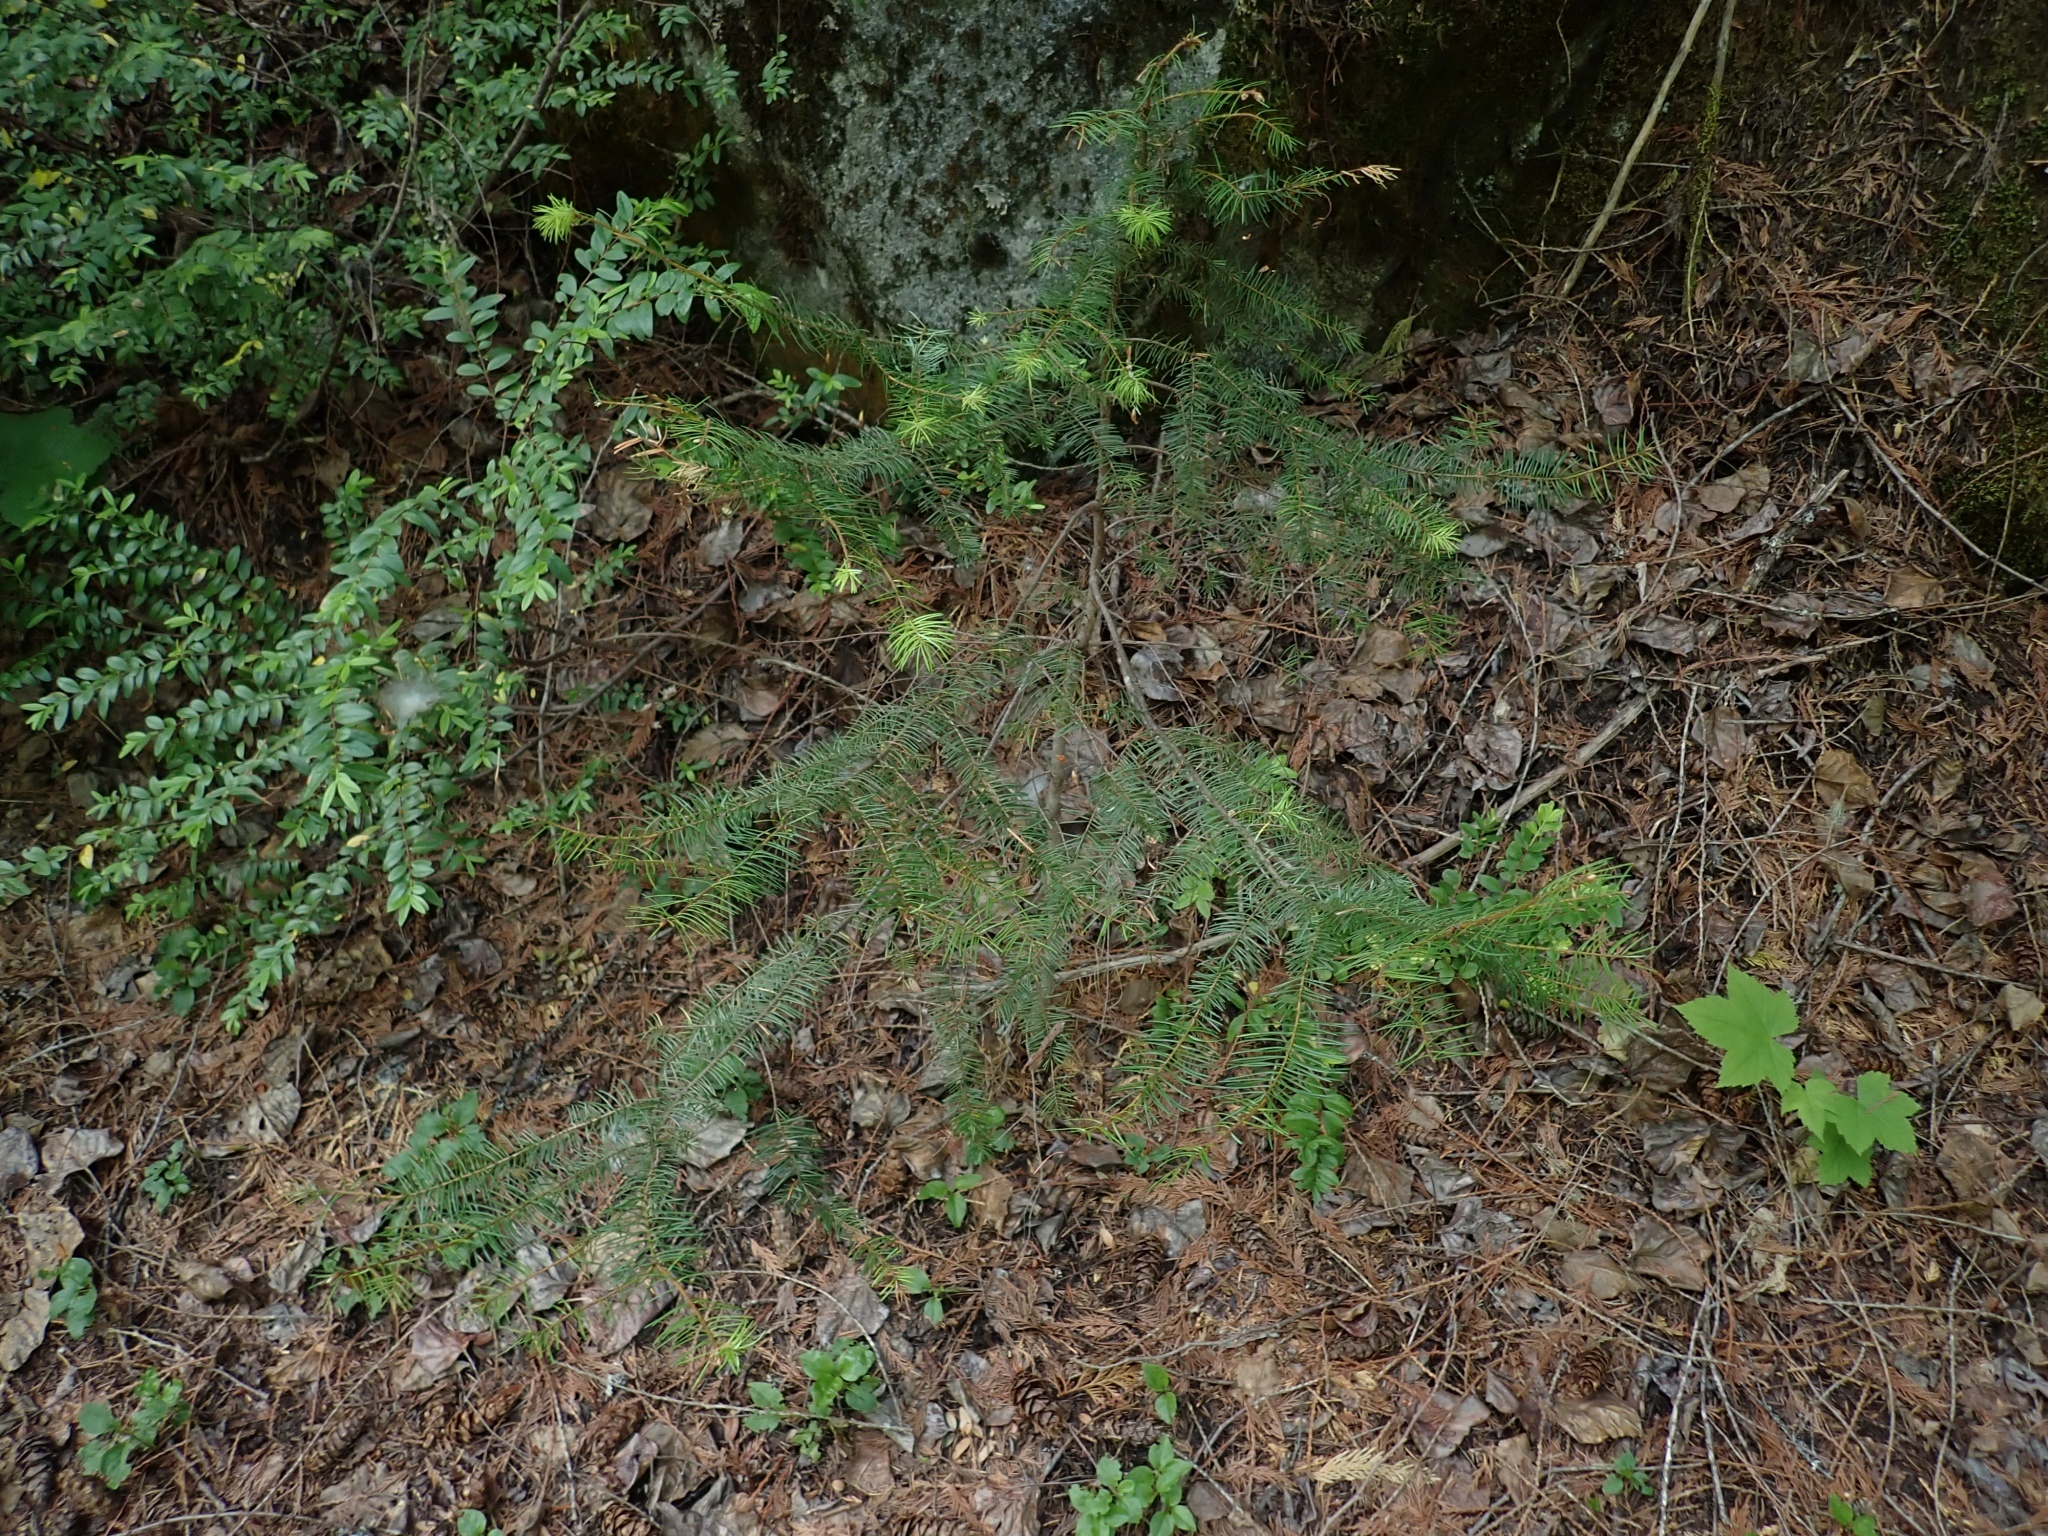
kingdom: Plantae
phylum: Tracheophyta
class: Pinopsida
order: Pinales
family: Pinaceae
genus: Pseudotsuga
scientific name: Pseudotsuga menziesii
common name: Douglas fir
